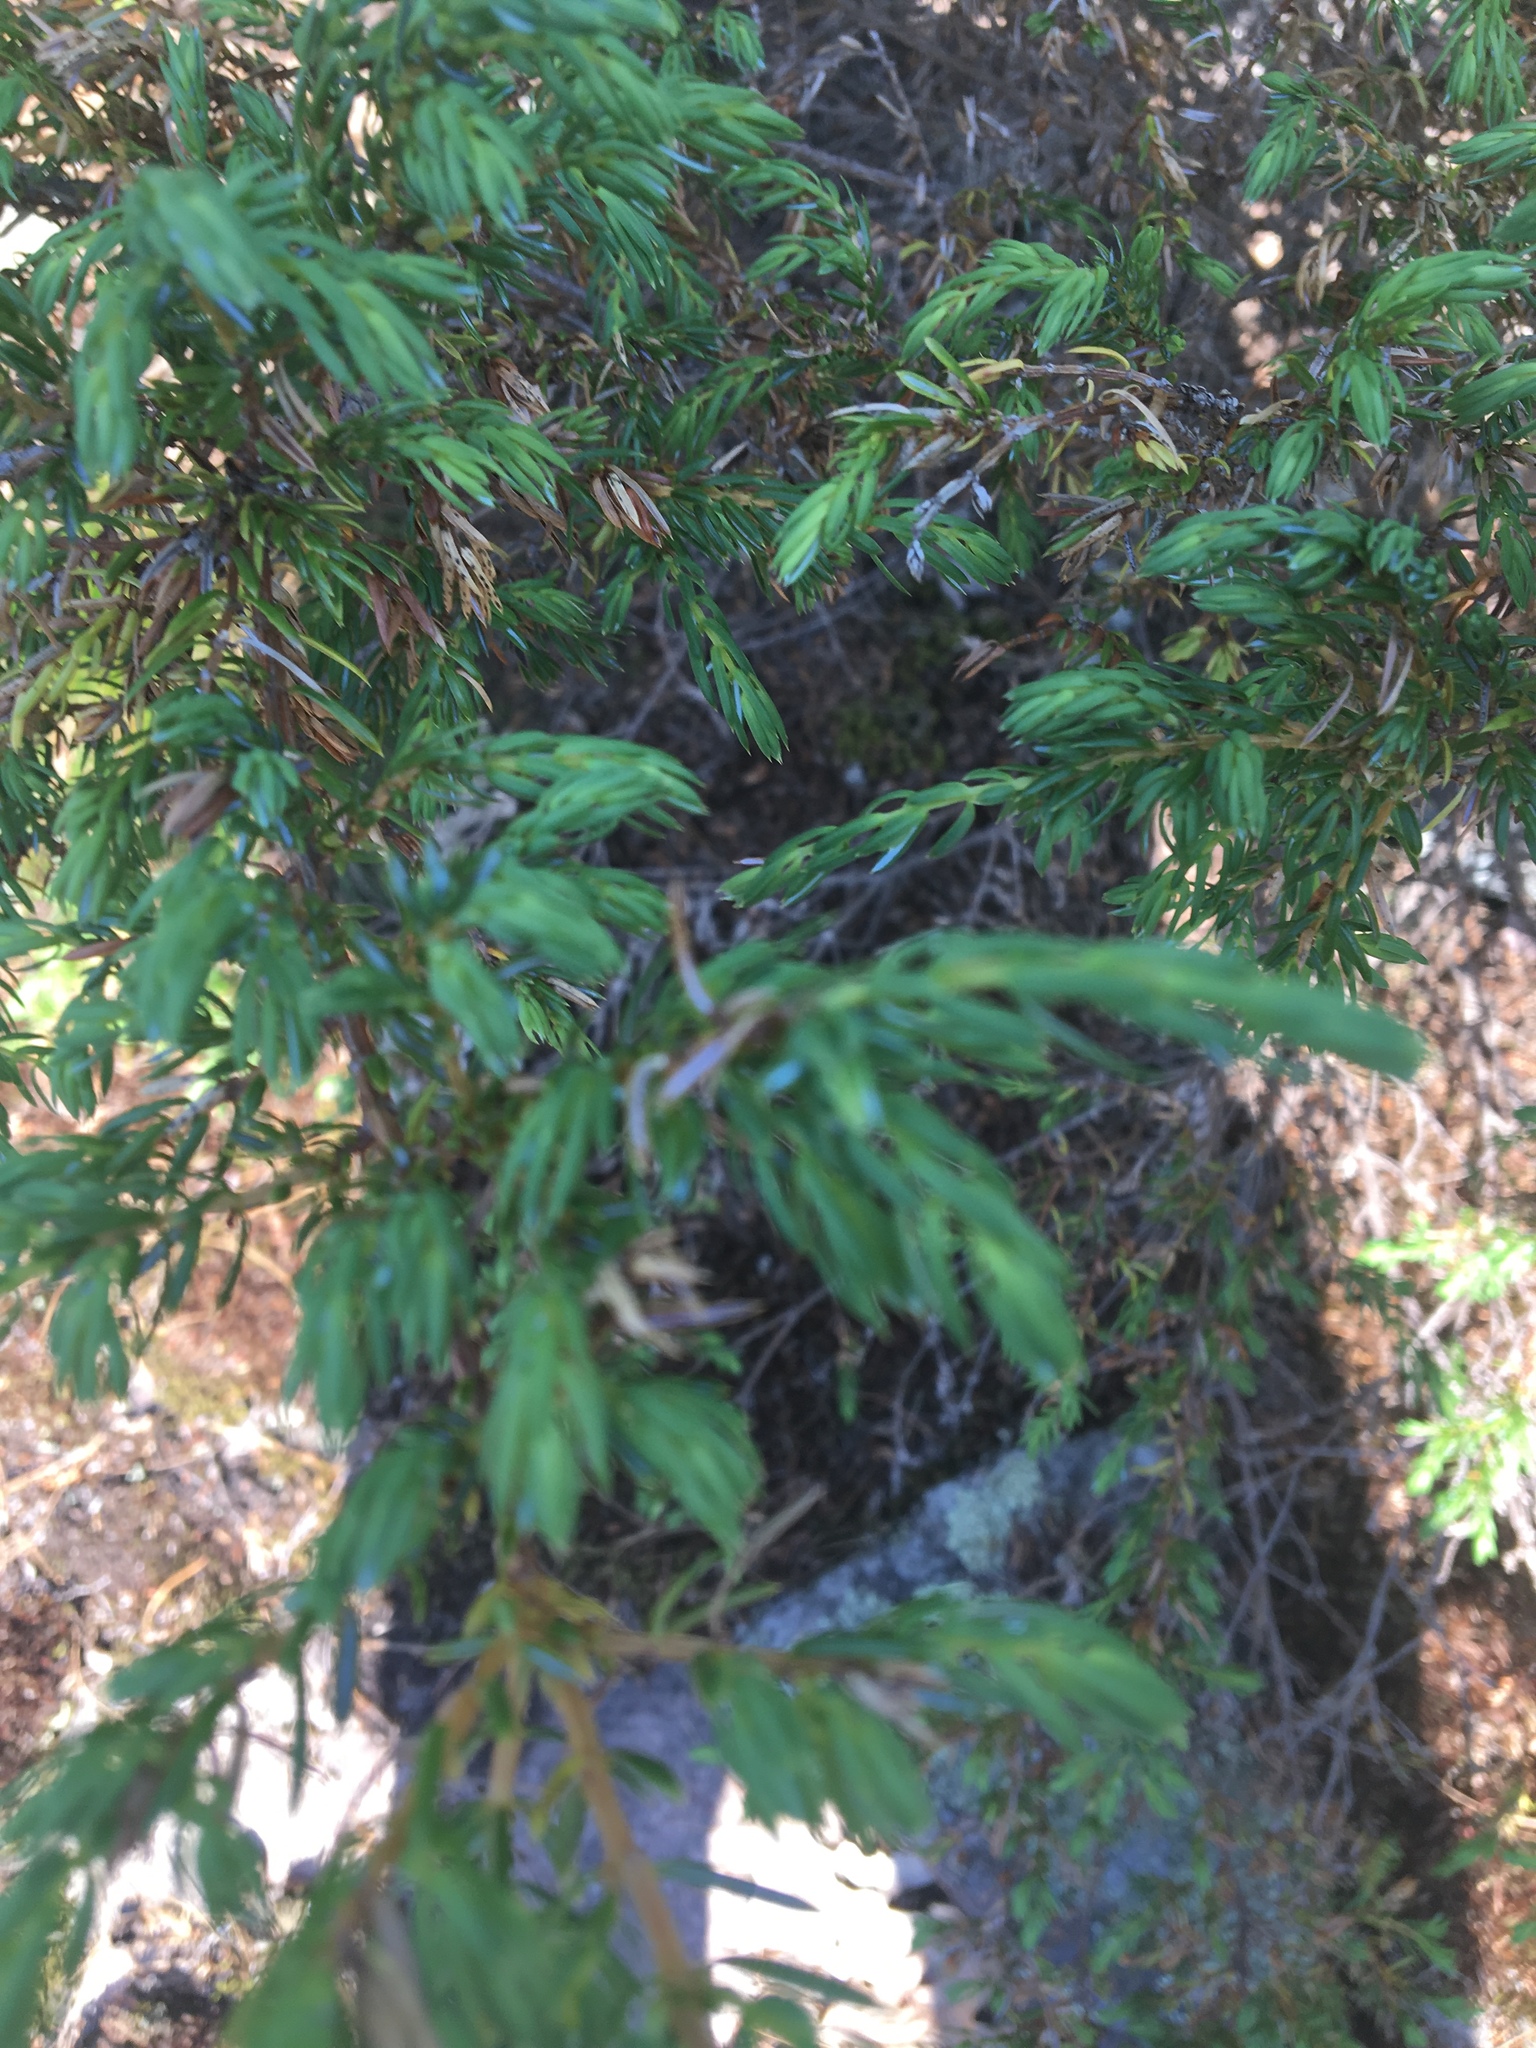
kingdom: Plantae
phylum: Tracheophyta
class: Pinopsida
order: Pinales
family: Cupressaceae
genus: Juniperus
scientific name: Juniperus communis
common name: Common juniper
